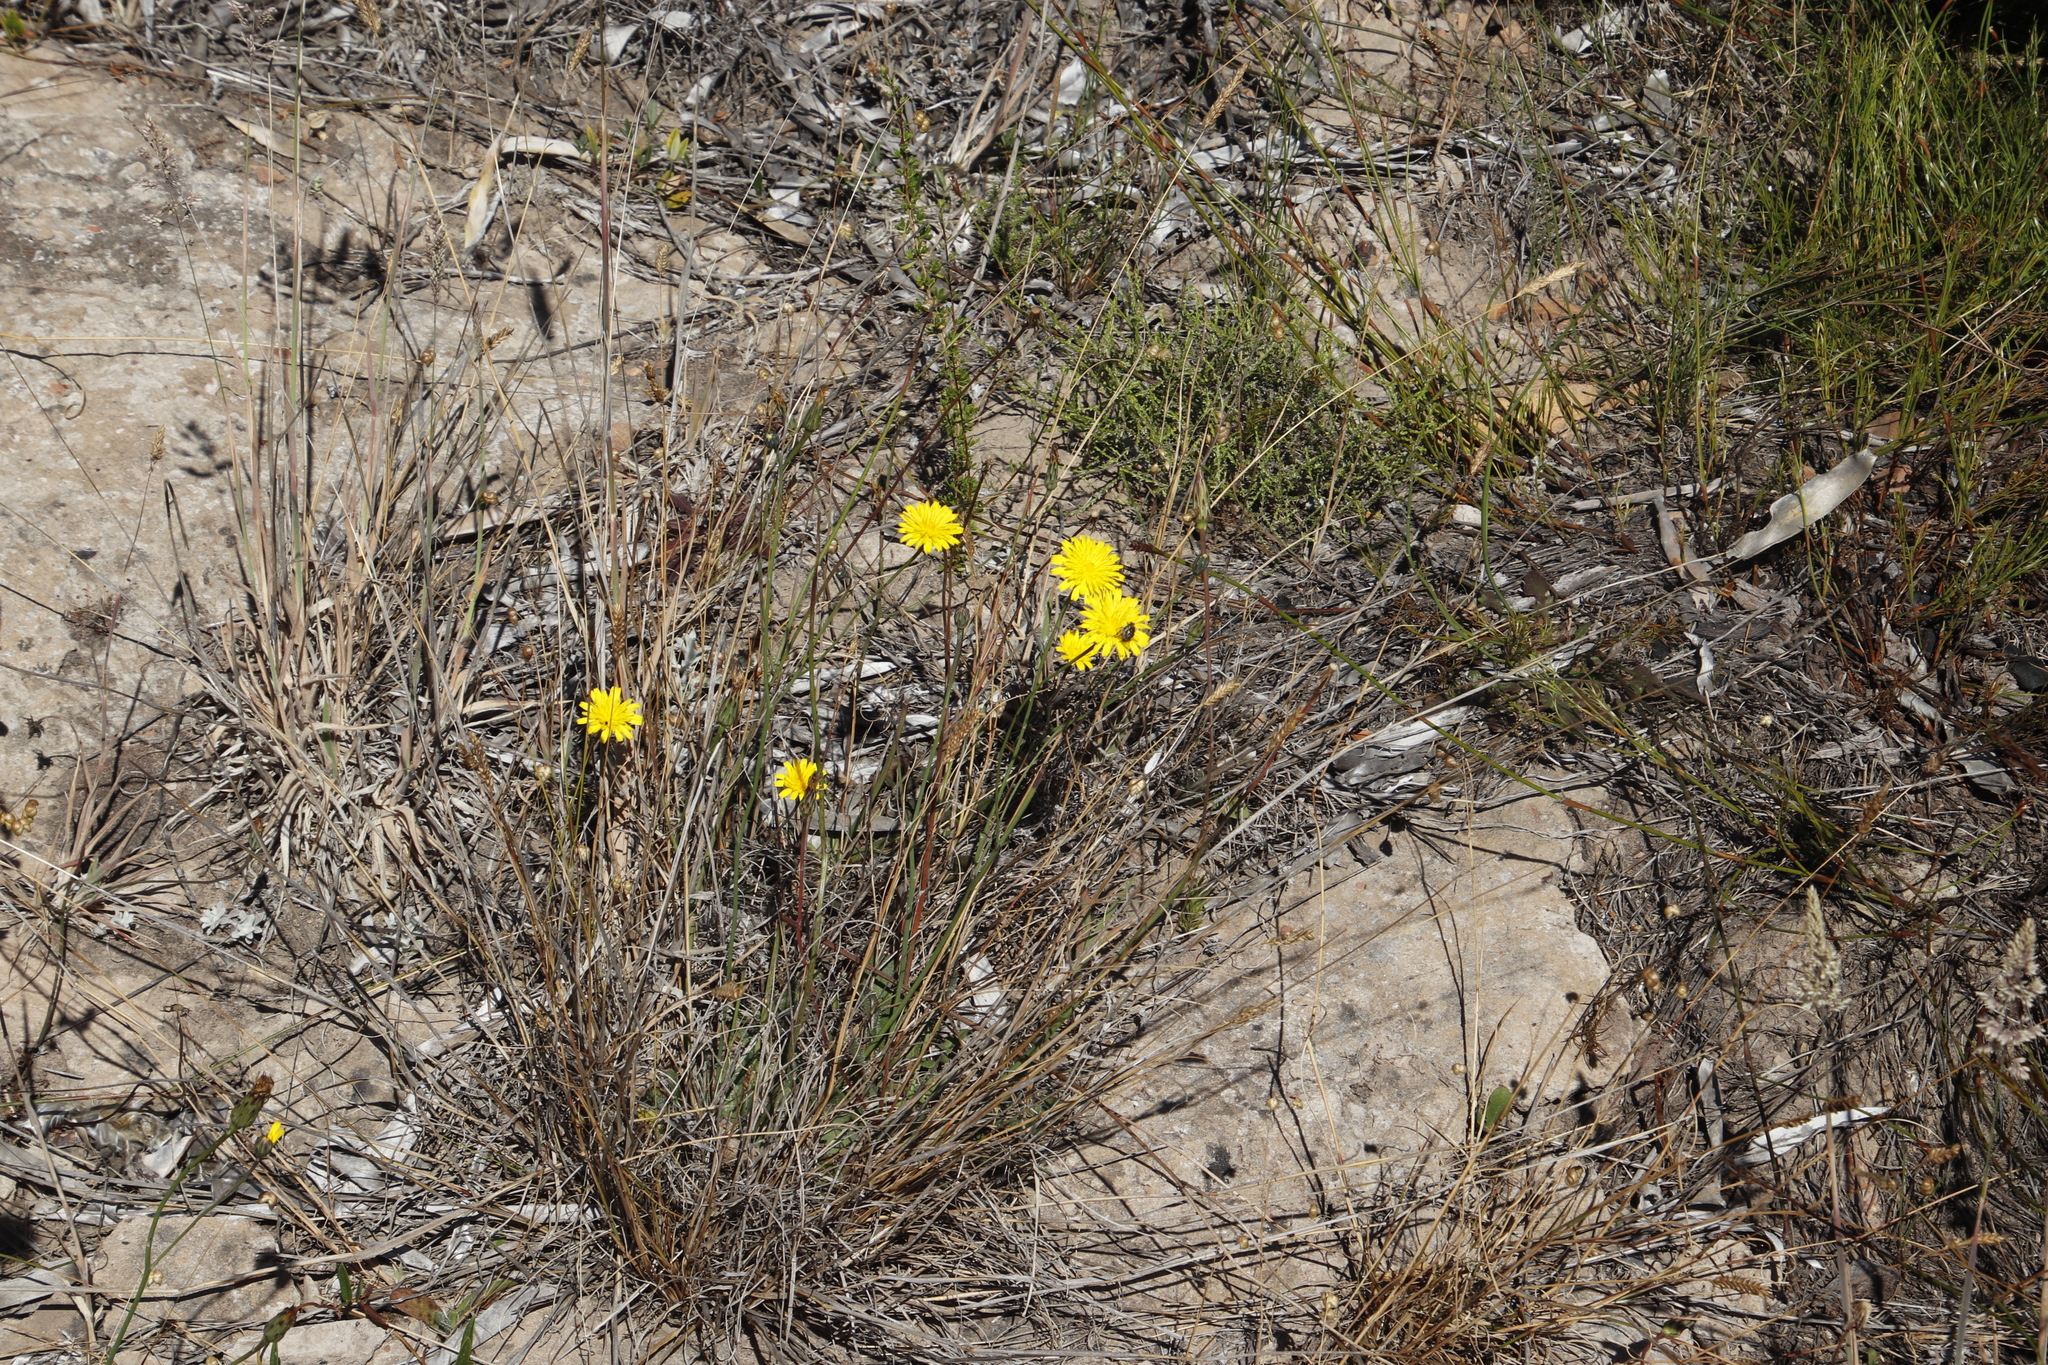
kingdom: Plantae
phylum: Tracheophyta
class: Magnoliopsida
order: Asterales
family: Asteraceae
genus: Hypochaeris
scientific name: Hypochaeris radicata
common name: Flatweed
